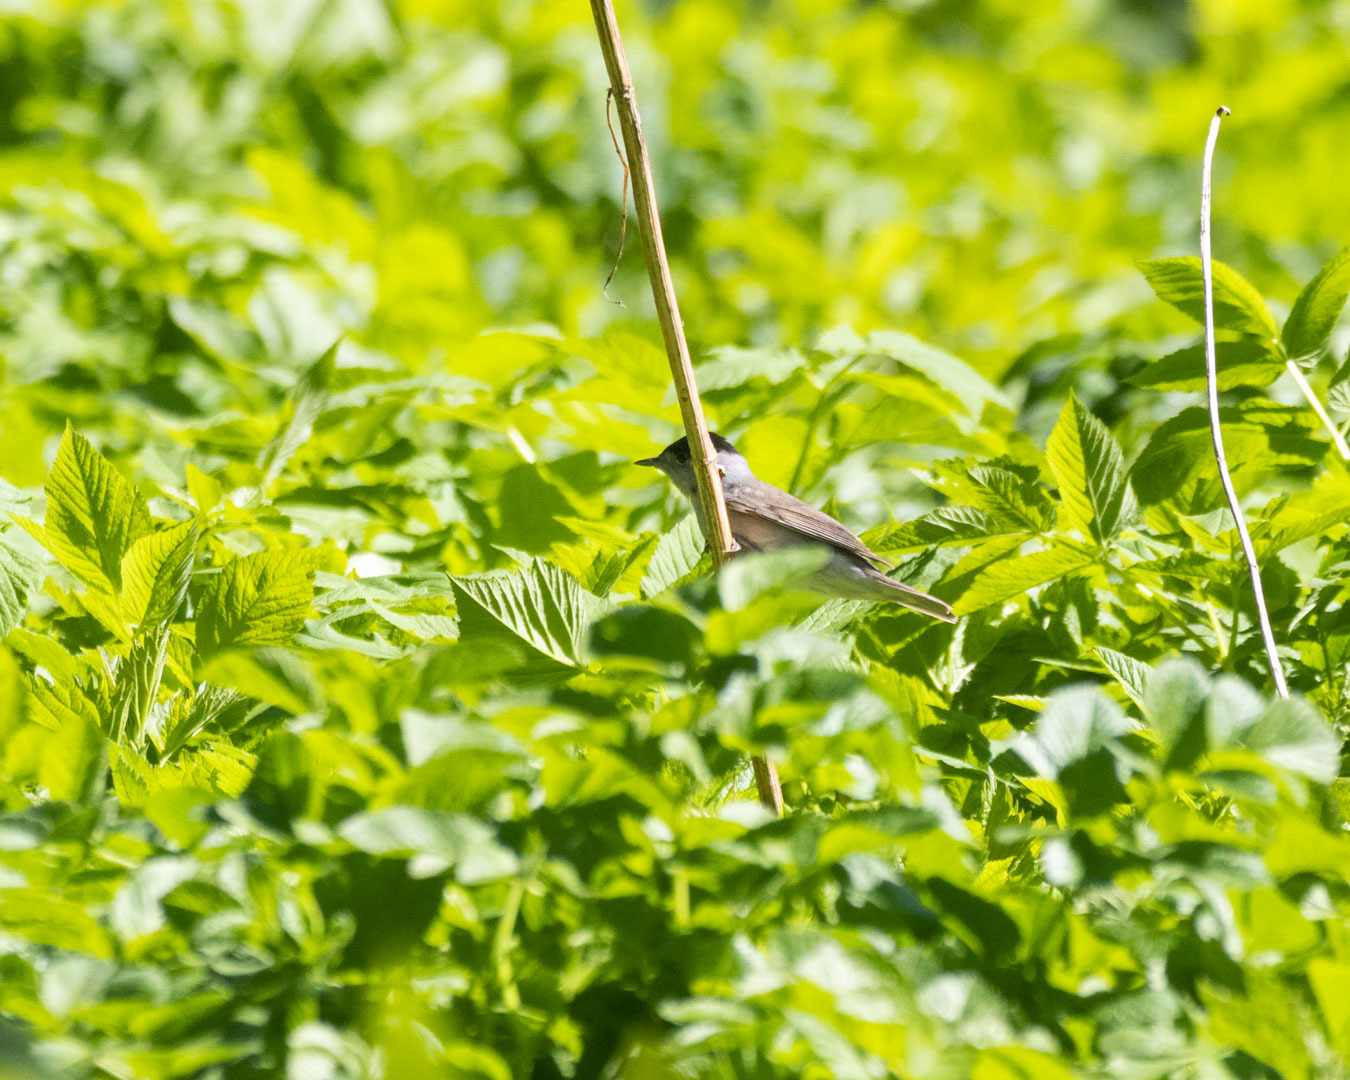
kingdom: Animalia
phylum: Chordata
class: Aves
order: Passeriformes
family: Sylviidae
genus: Sylvia
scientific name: Sylvia atricapilla
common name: Eurasian blackcap
